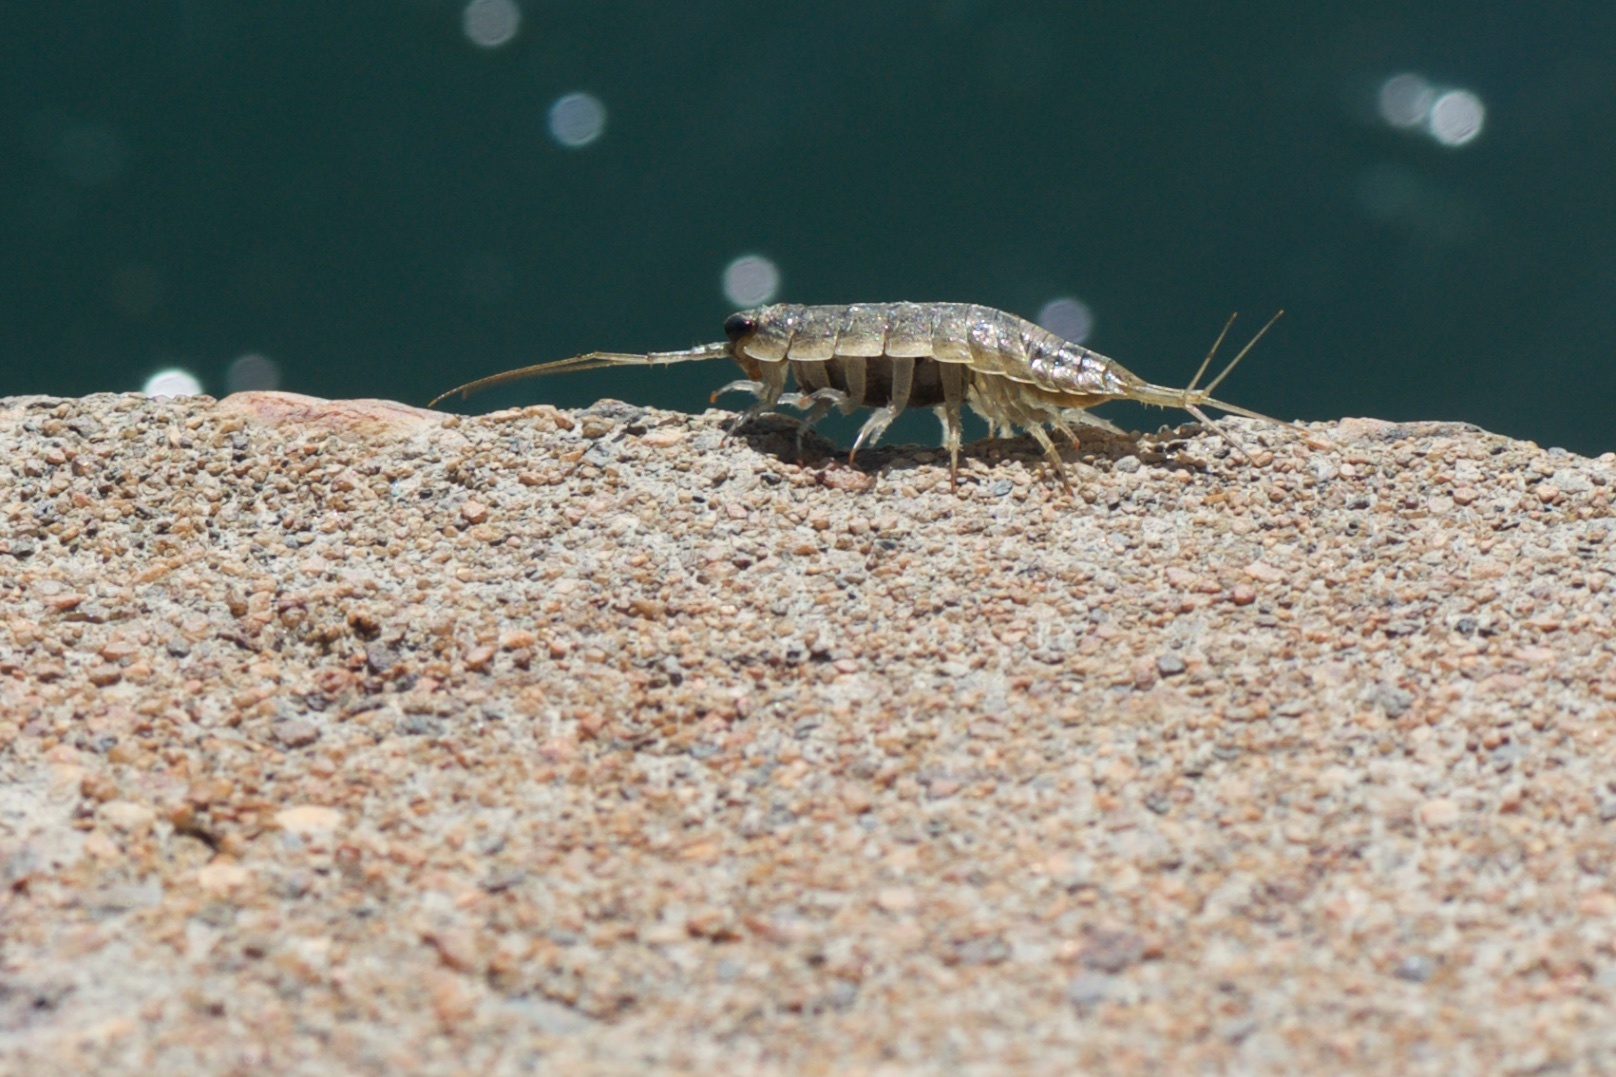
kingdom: Animalia
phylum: Arthropoda
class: Malacostraca
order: Isopoda
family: Ligiidae
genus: Ligia
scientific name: Ligia occidentalis
